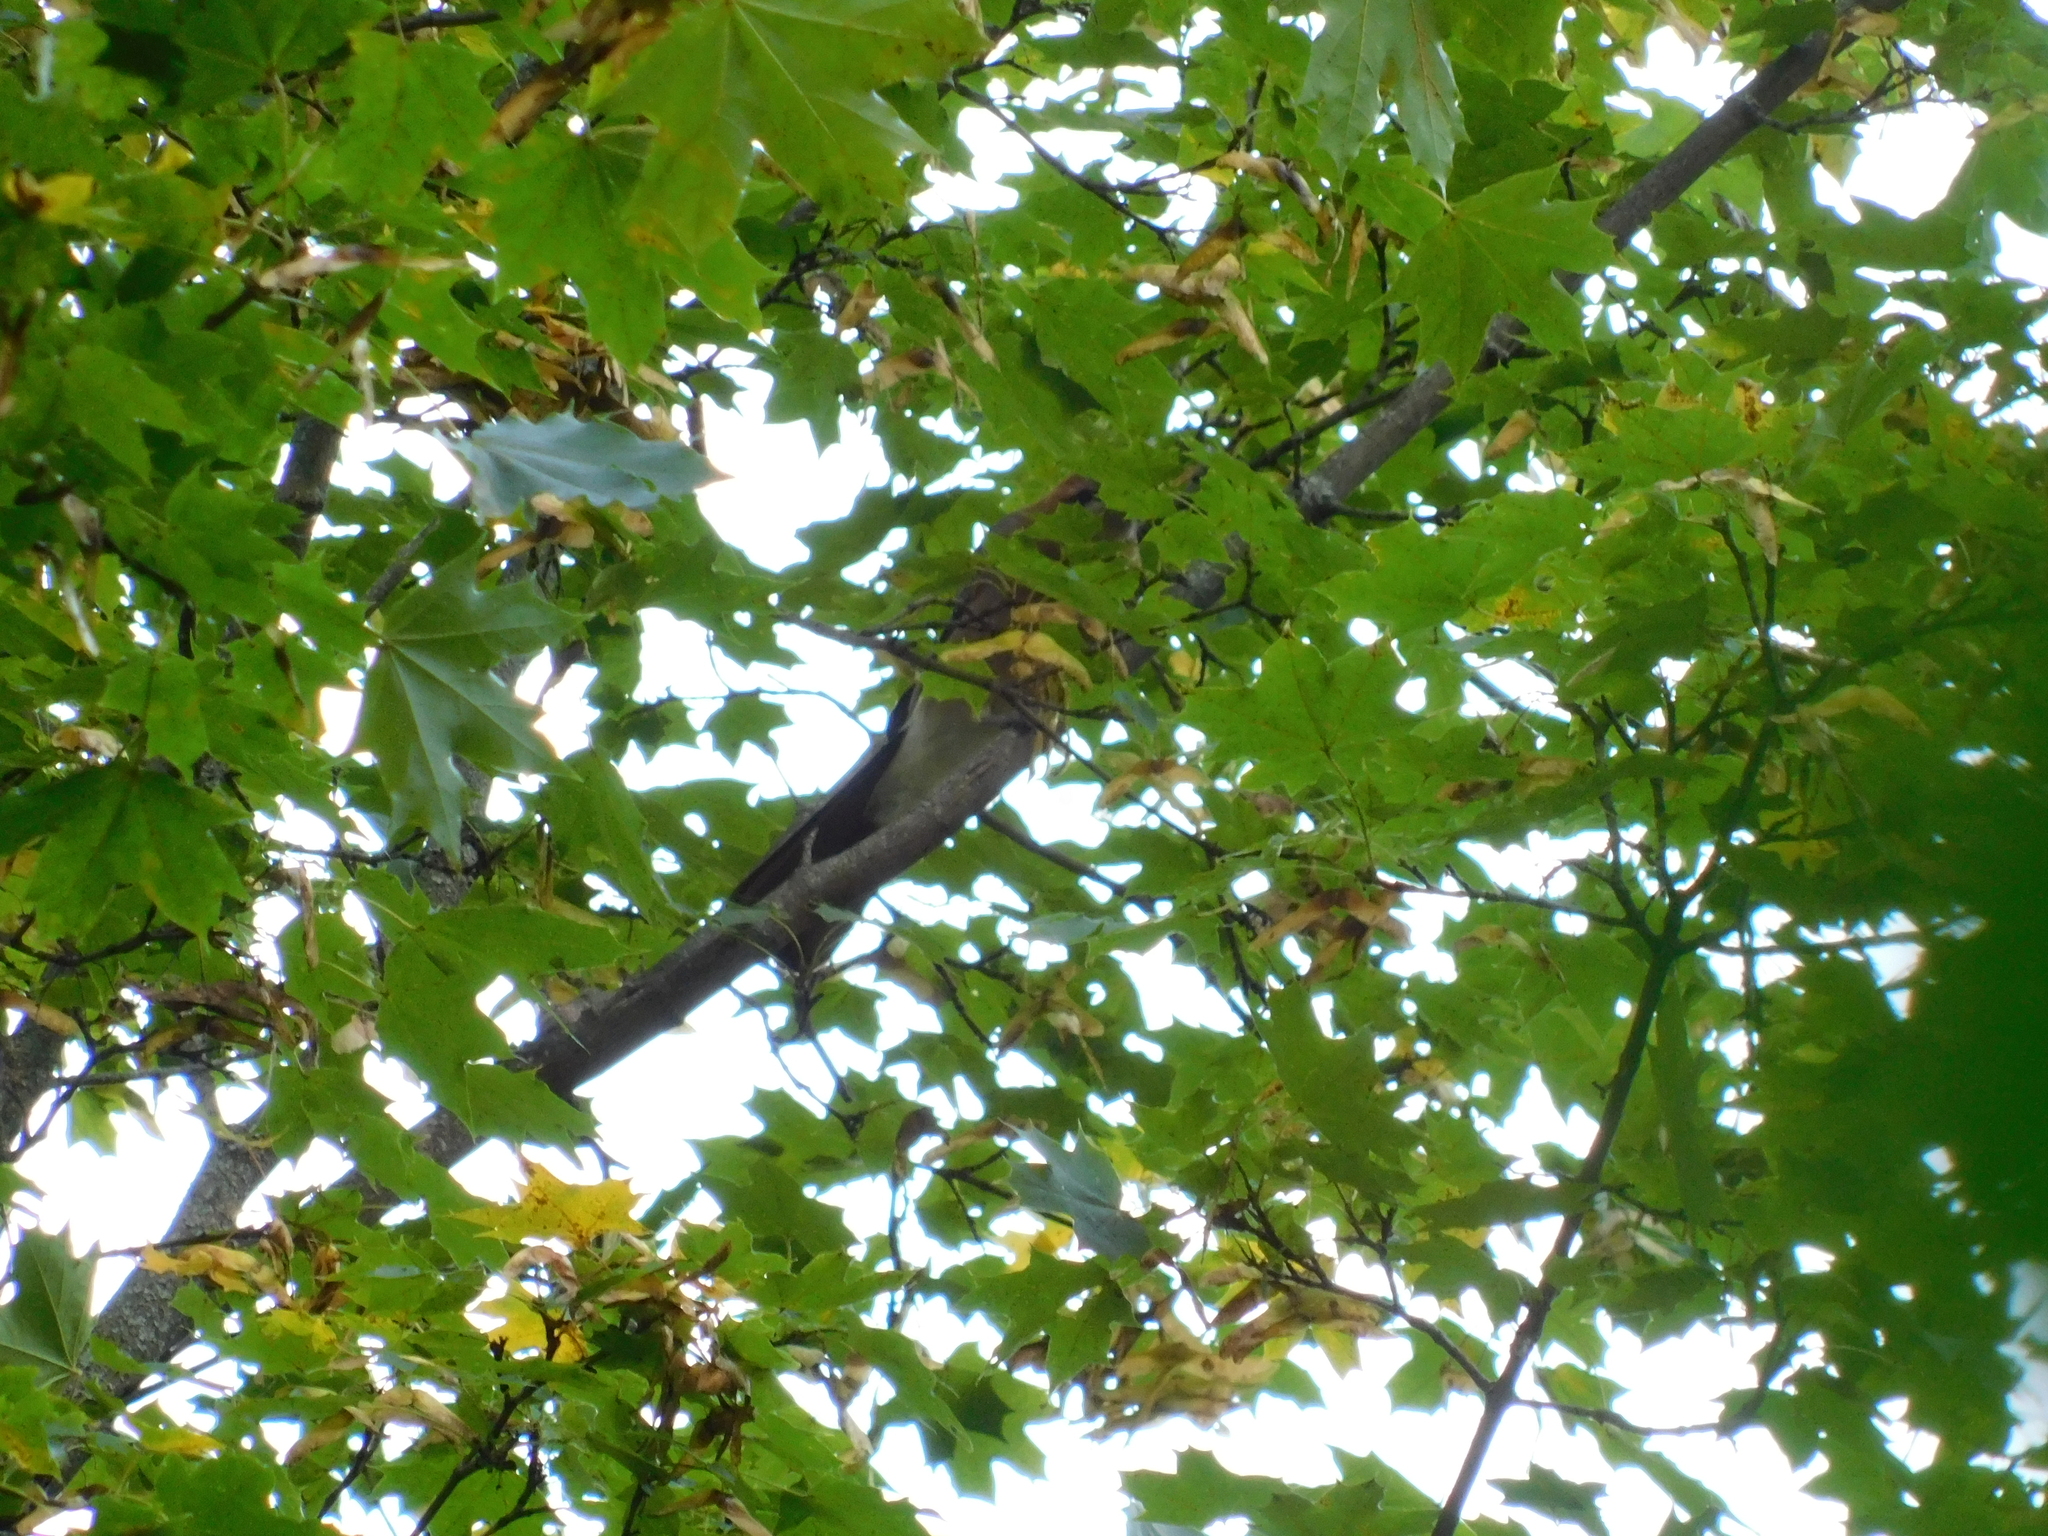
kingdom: Animalia
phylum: Chordata
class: Aves
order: Passeriformes
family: Corvidae
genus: Garrulus
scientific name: Garrulus glandarius
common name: Eurasian jay
